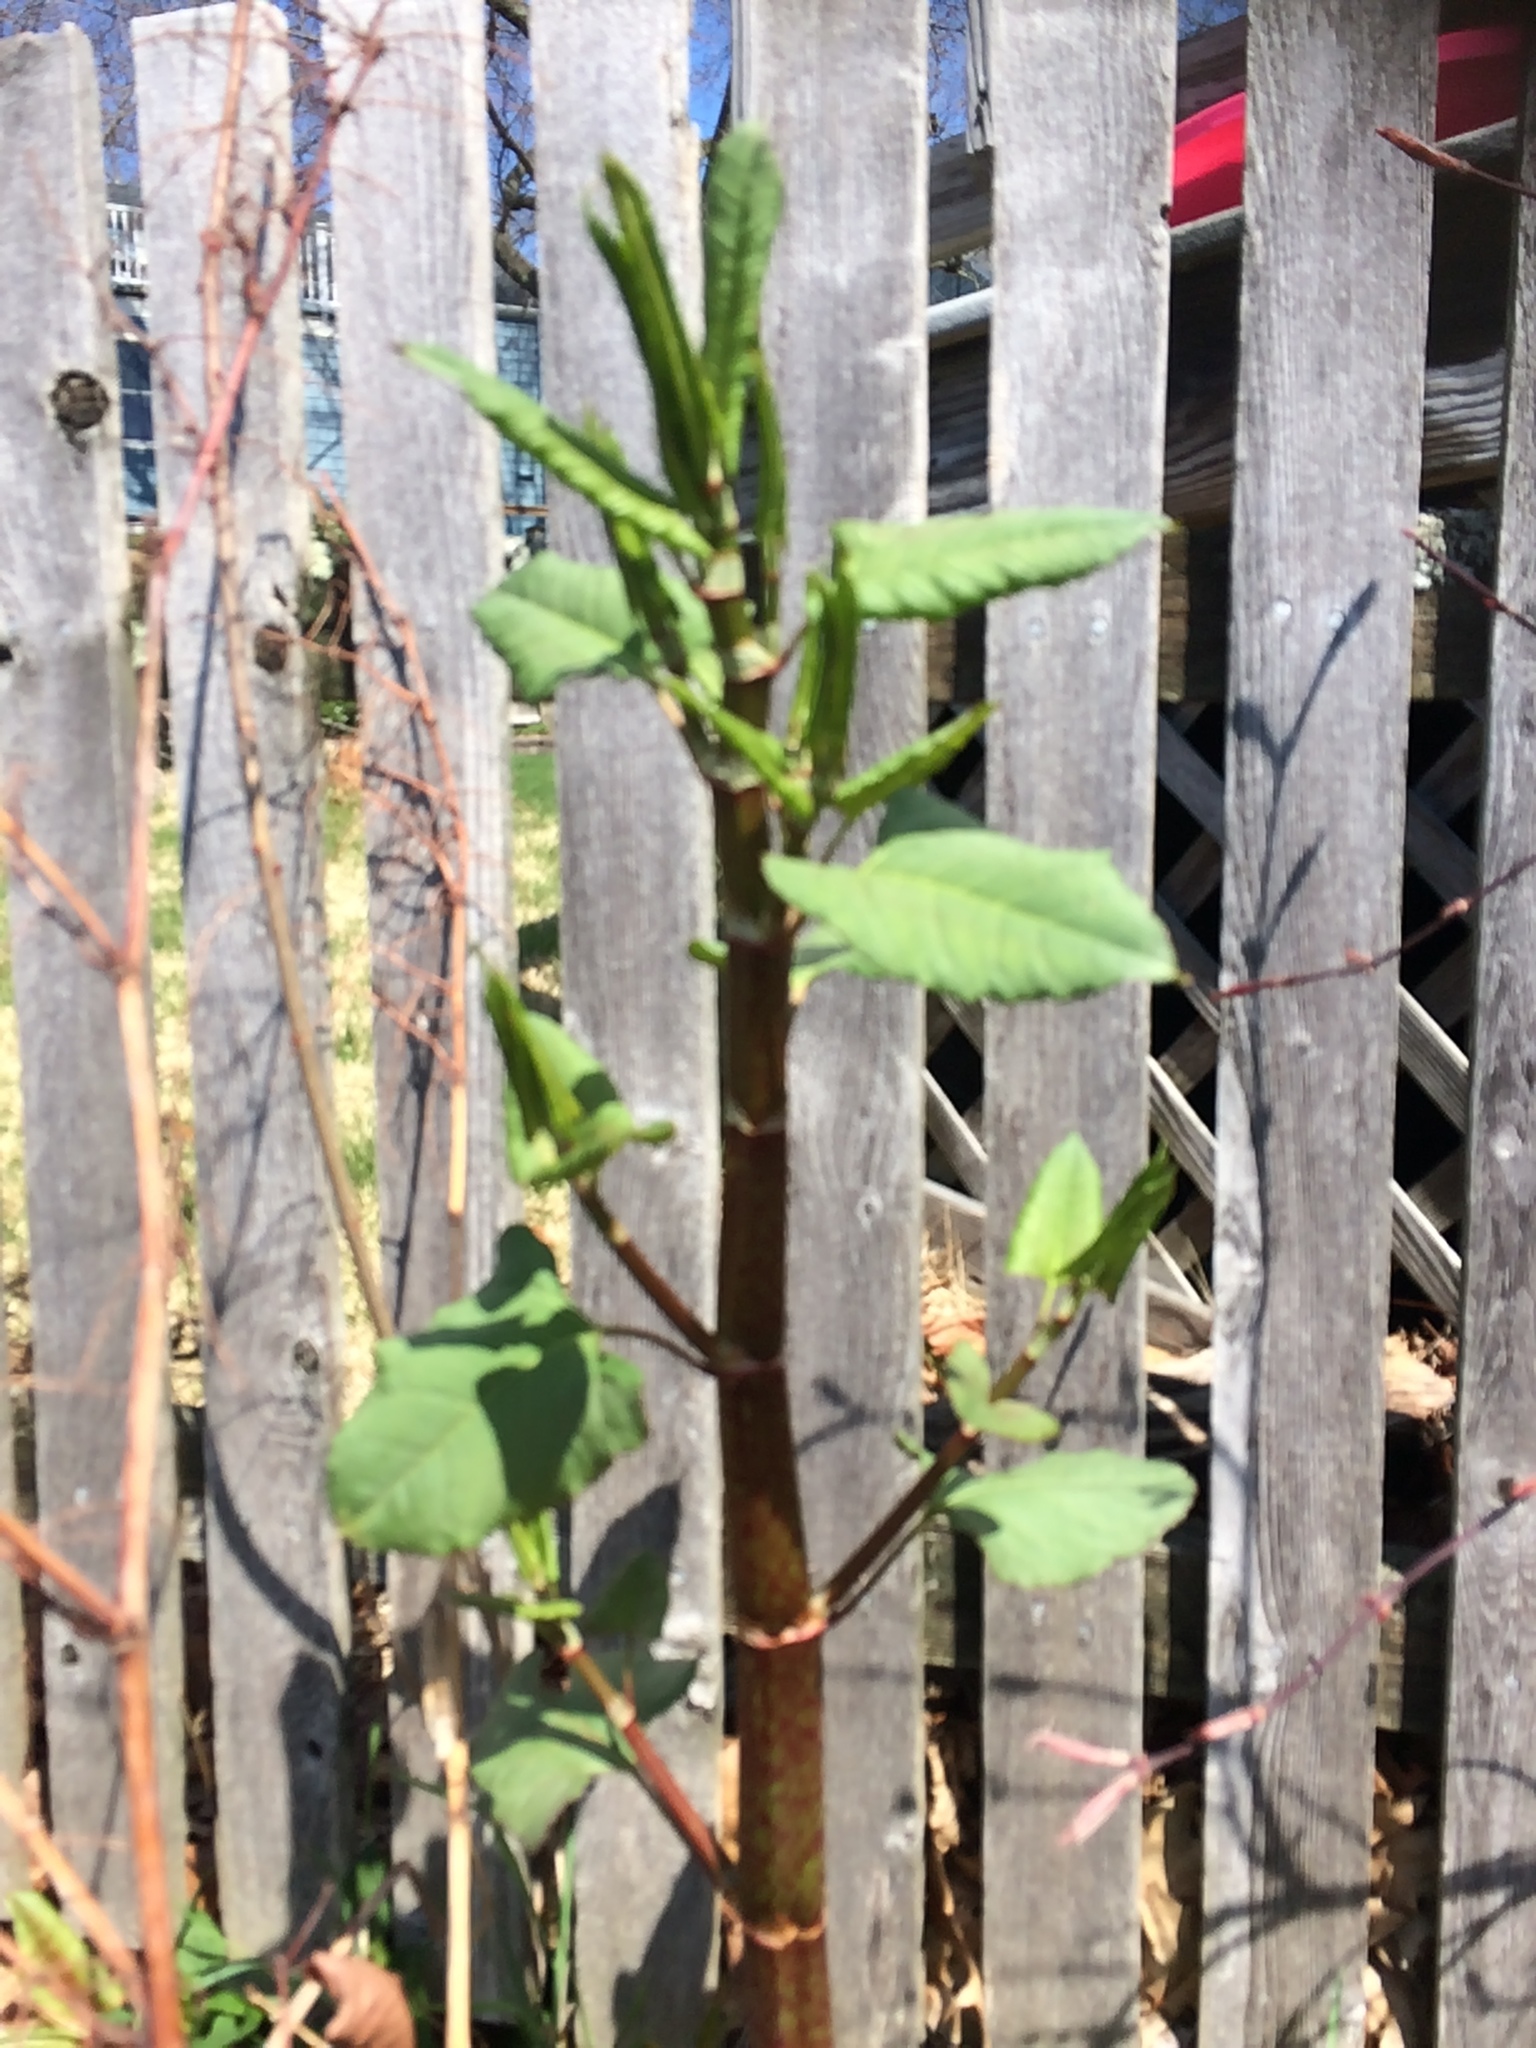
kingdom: Plantae
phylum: Tracheophyta
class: Magnoliopsida
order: Caryophyllales
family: Polygonaceae
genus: Reynoutria
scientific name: Reynoutria japonica
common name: Japanese knotweed
